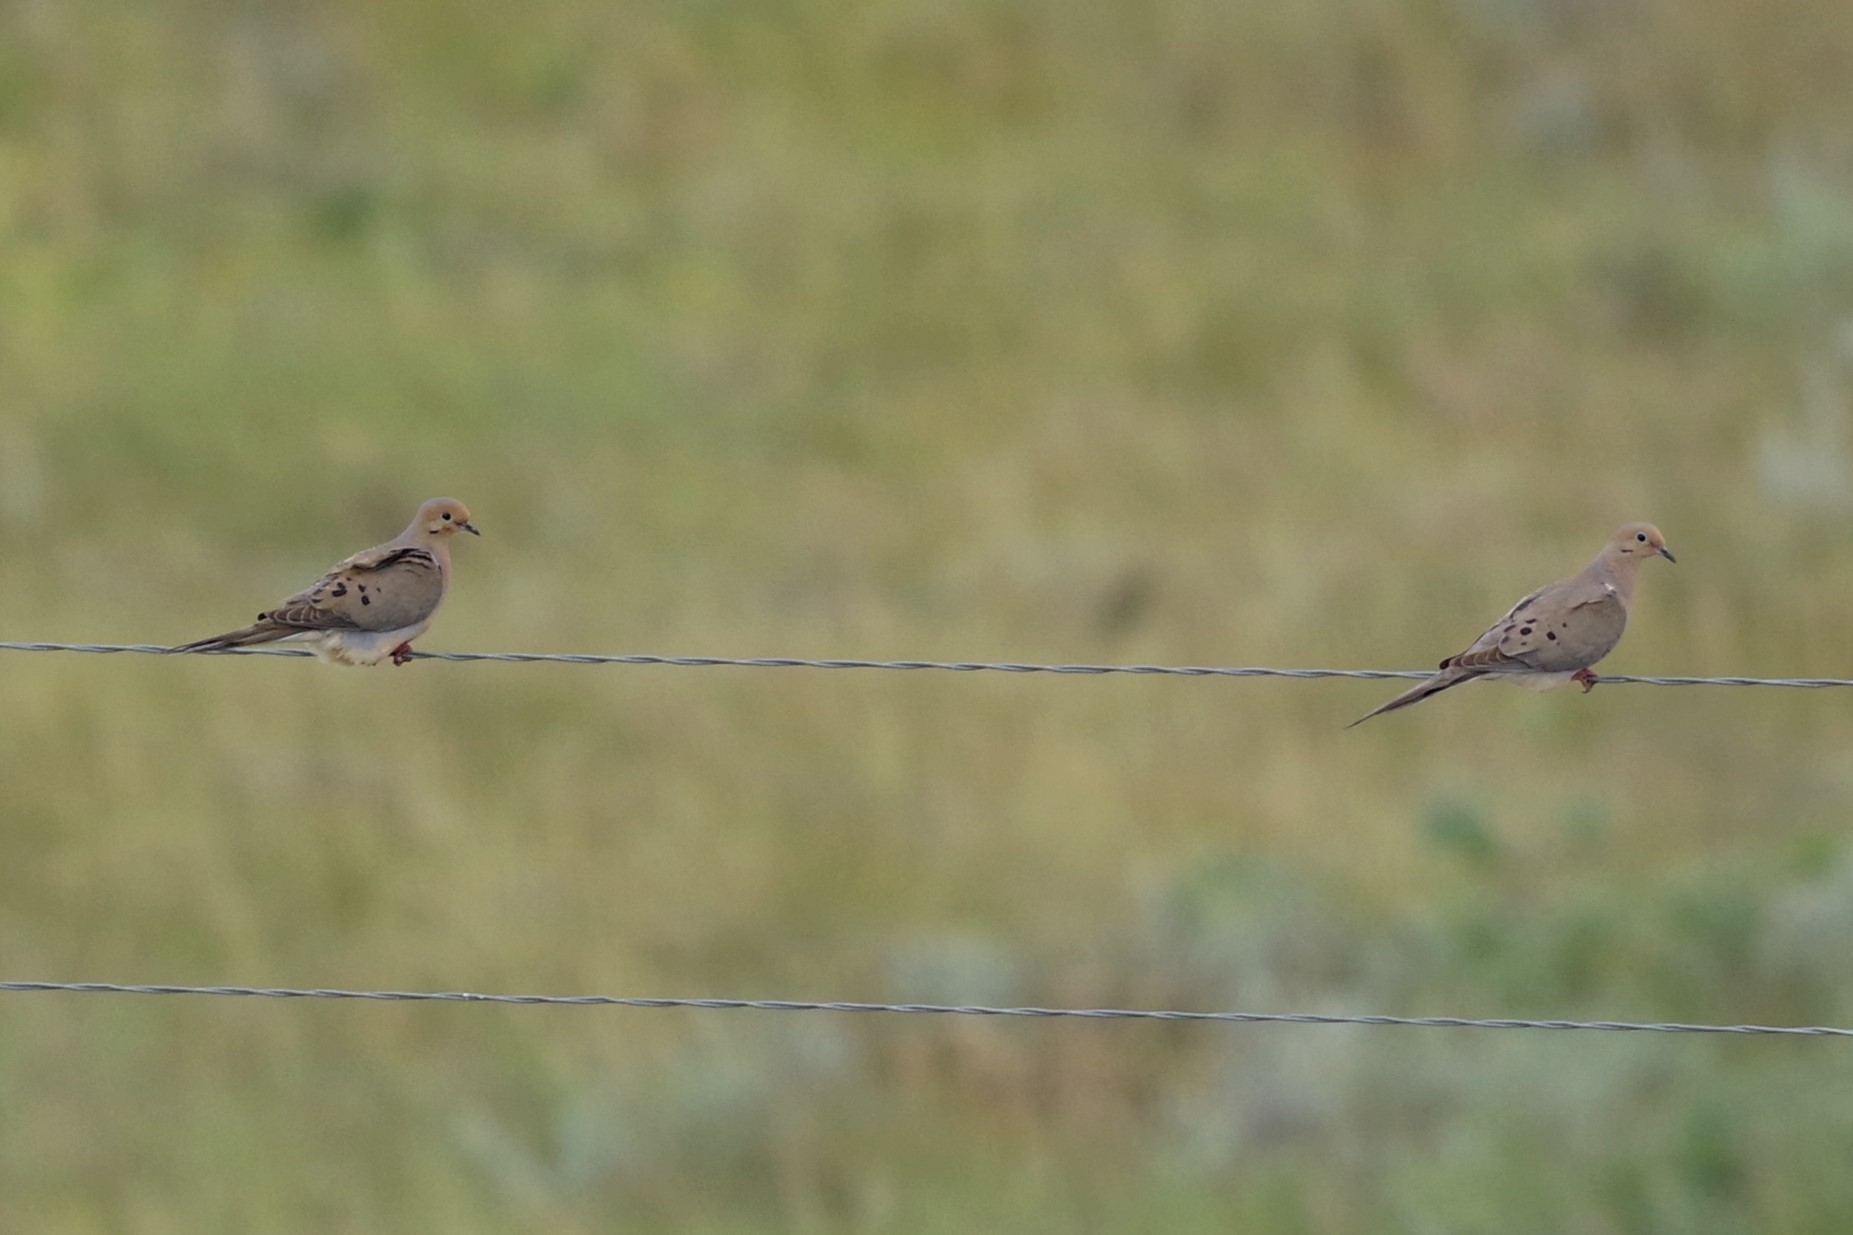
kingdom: Animalia
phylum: Chordata
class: Aves
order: Columbiformes
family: Columbidae
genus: Zenaida
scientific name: Zenaida macroura
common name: Mourning dove
